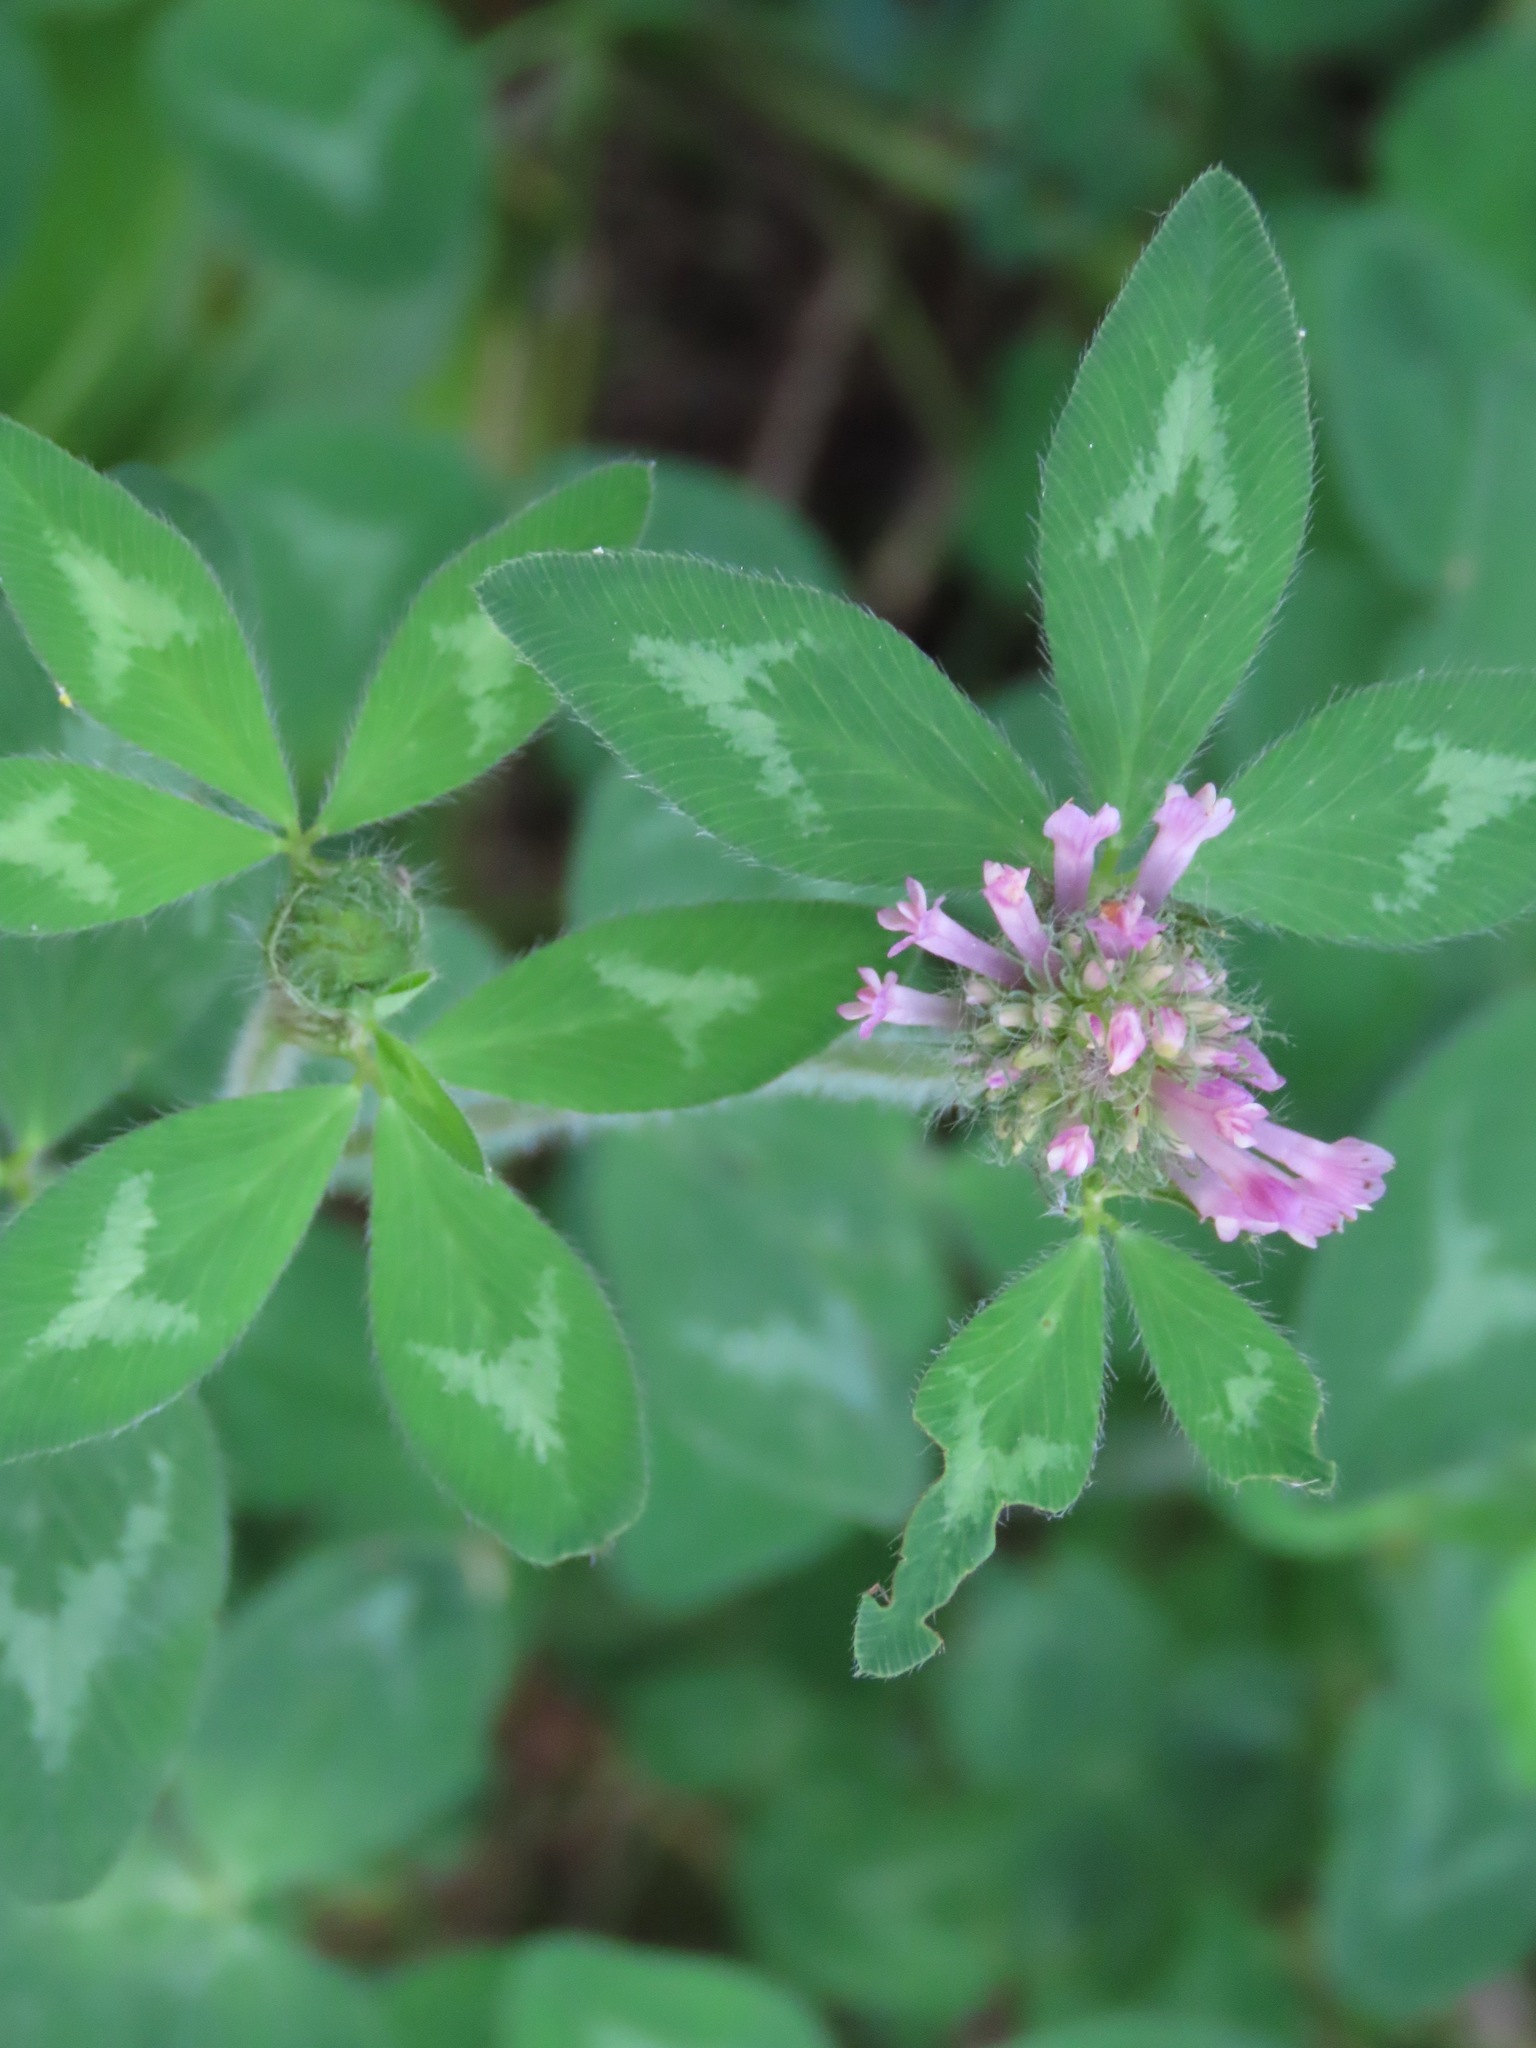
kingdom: Plantae
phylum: Tracheophyta
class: Magnoliopsida
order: Fabales
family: Fabaceae
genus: Trifolium
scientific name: Trifolium pratense
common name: Red clover
